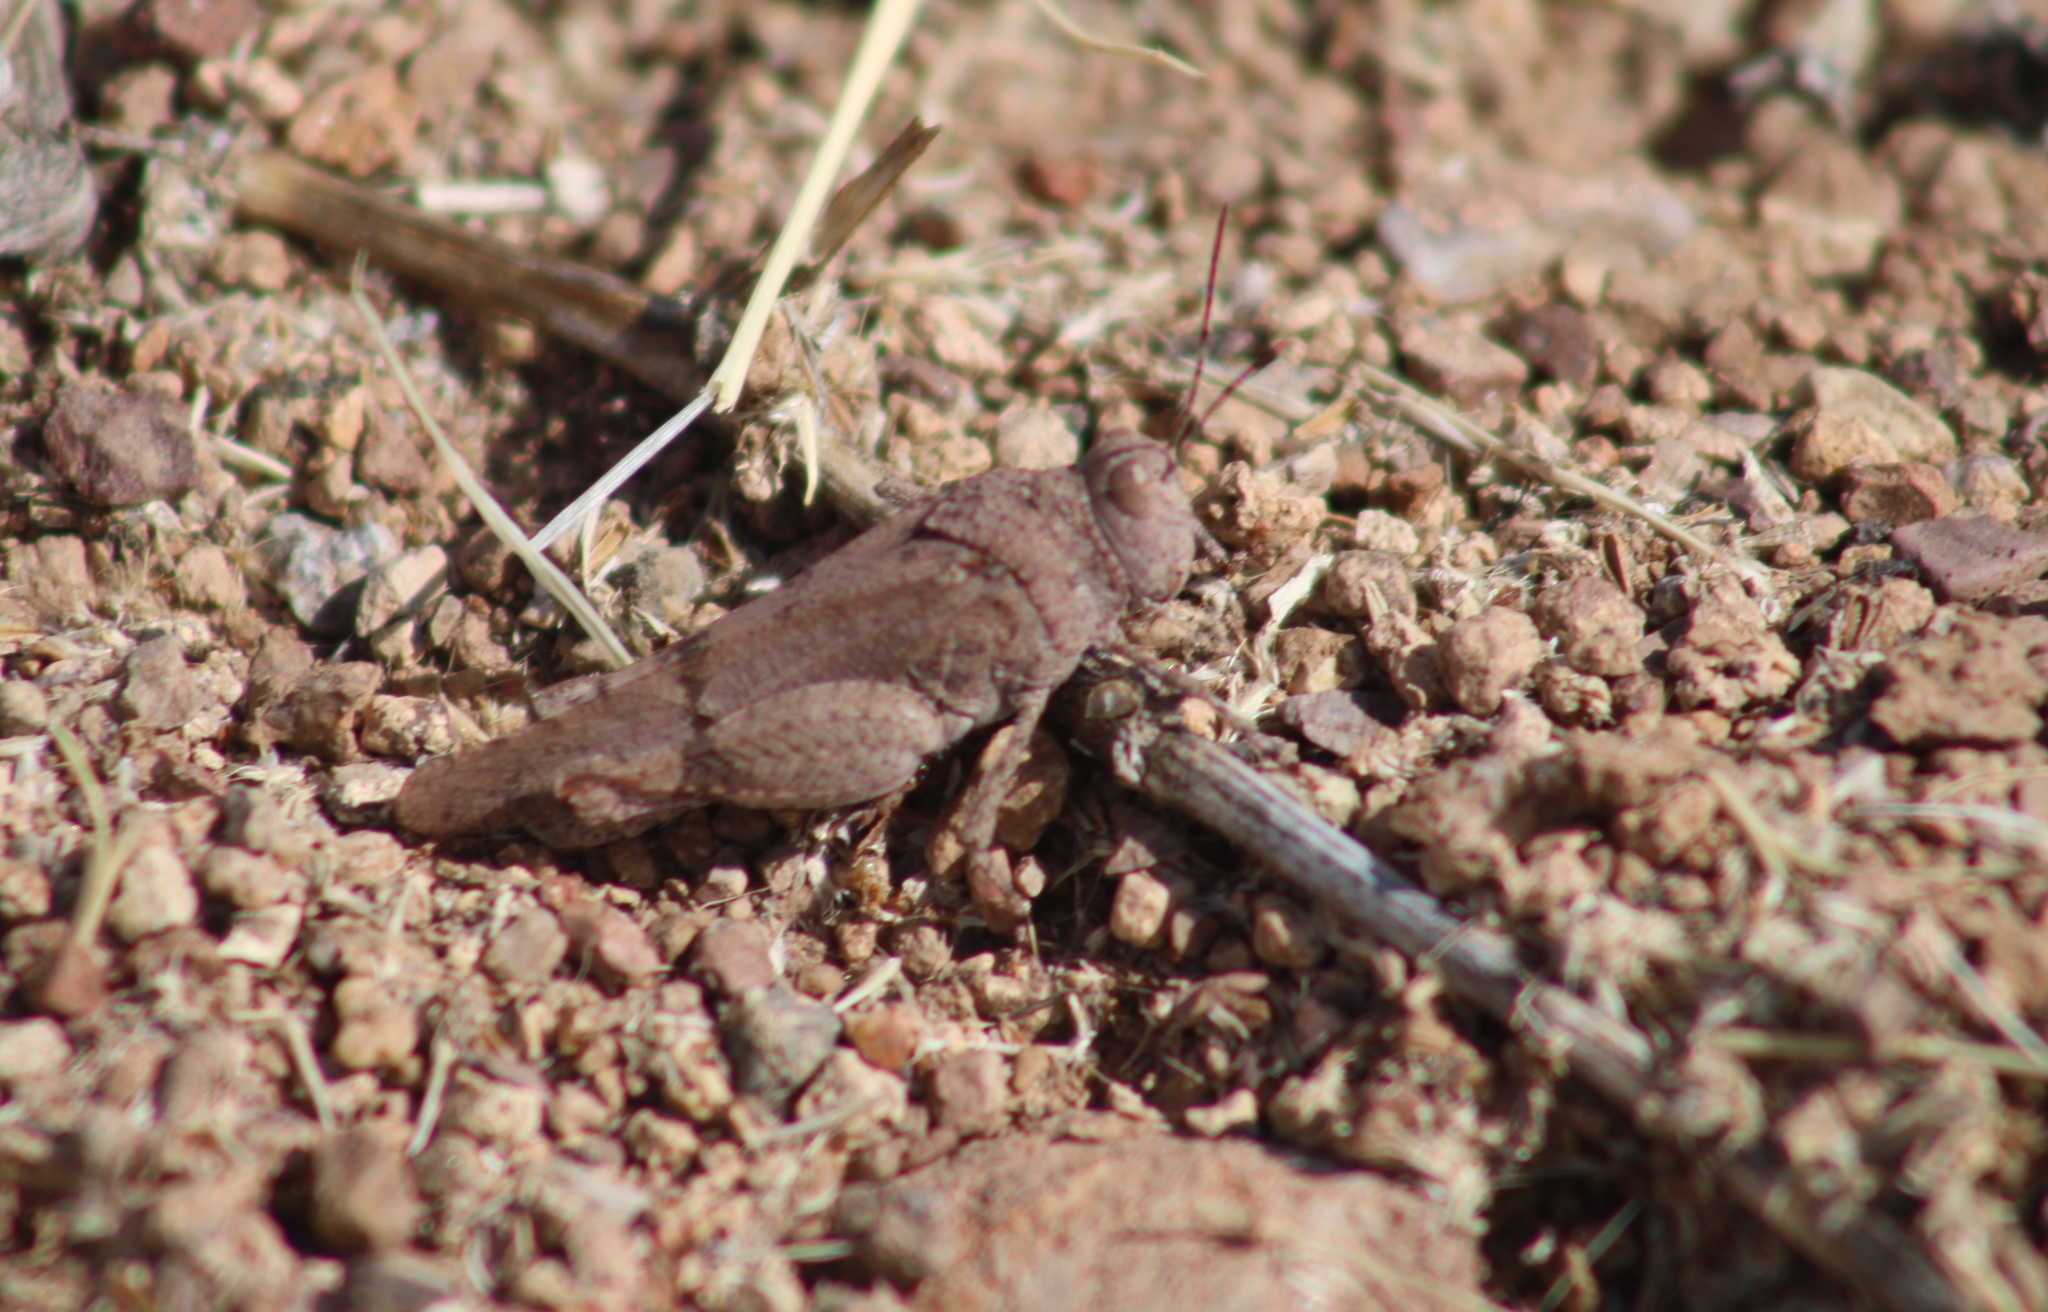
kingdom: Animalia
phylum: Arthropoda
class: Insecta
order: Orthoptera
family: Acrididae
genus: Lactista
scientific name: Lactista azteca
